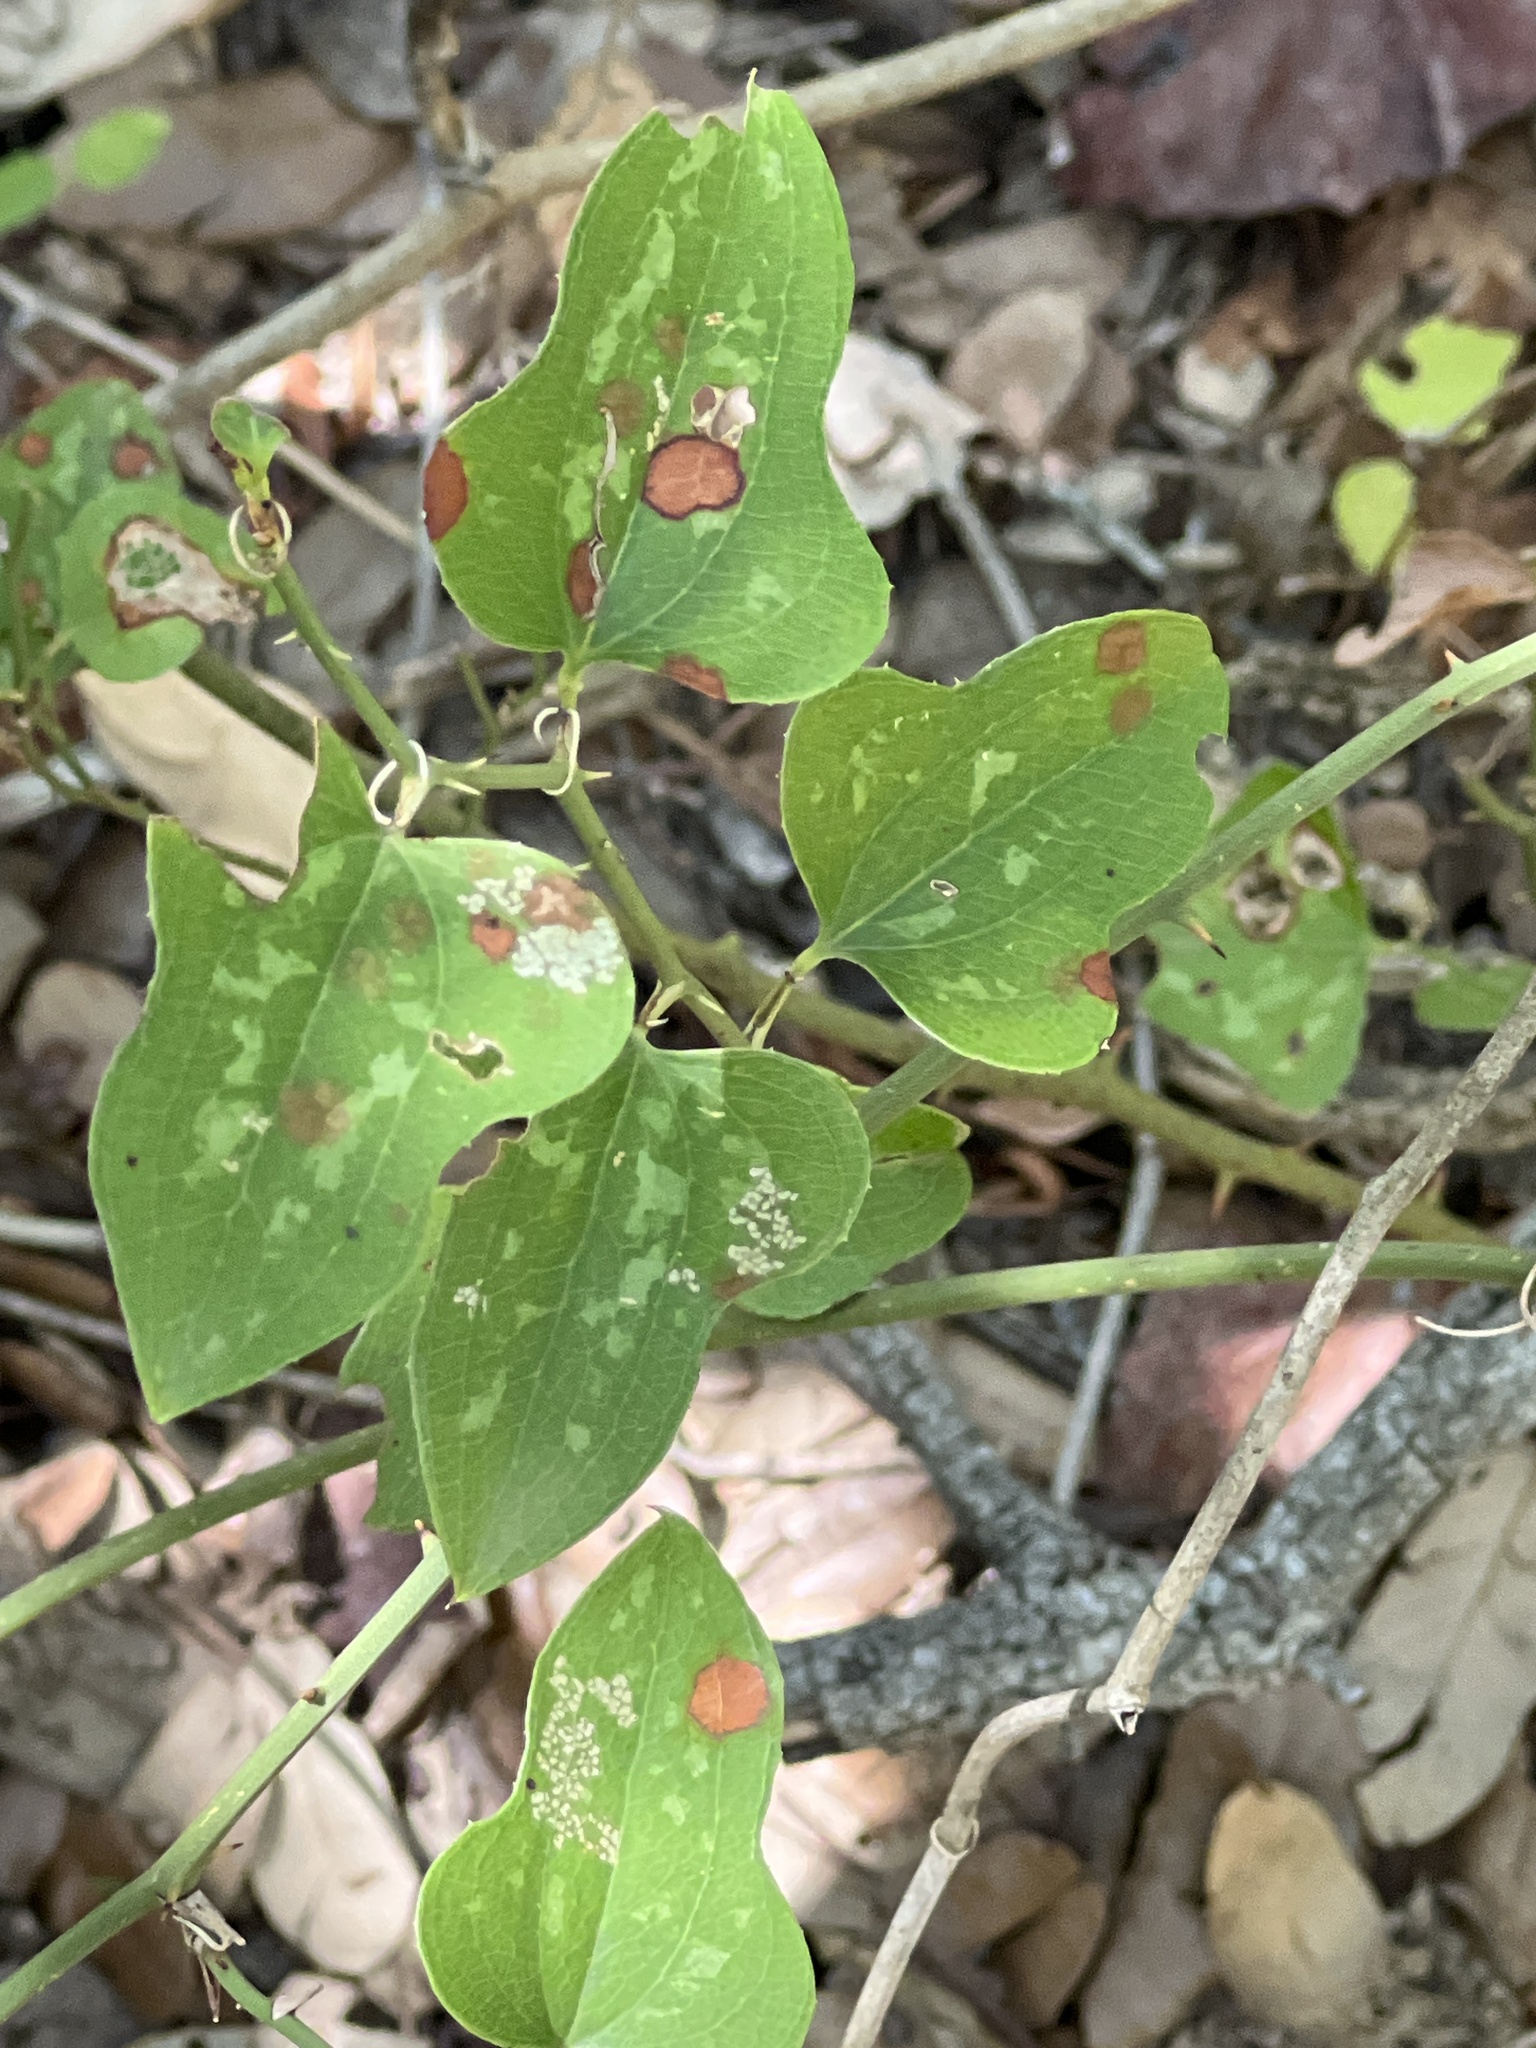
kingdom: Plantae
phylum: Tracheophyta
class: Liliopsida
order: Liliales
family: Smilacaceae
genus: Smilax
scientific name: Smilax bona-nox
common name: Catbrier
